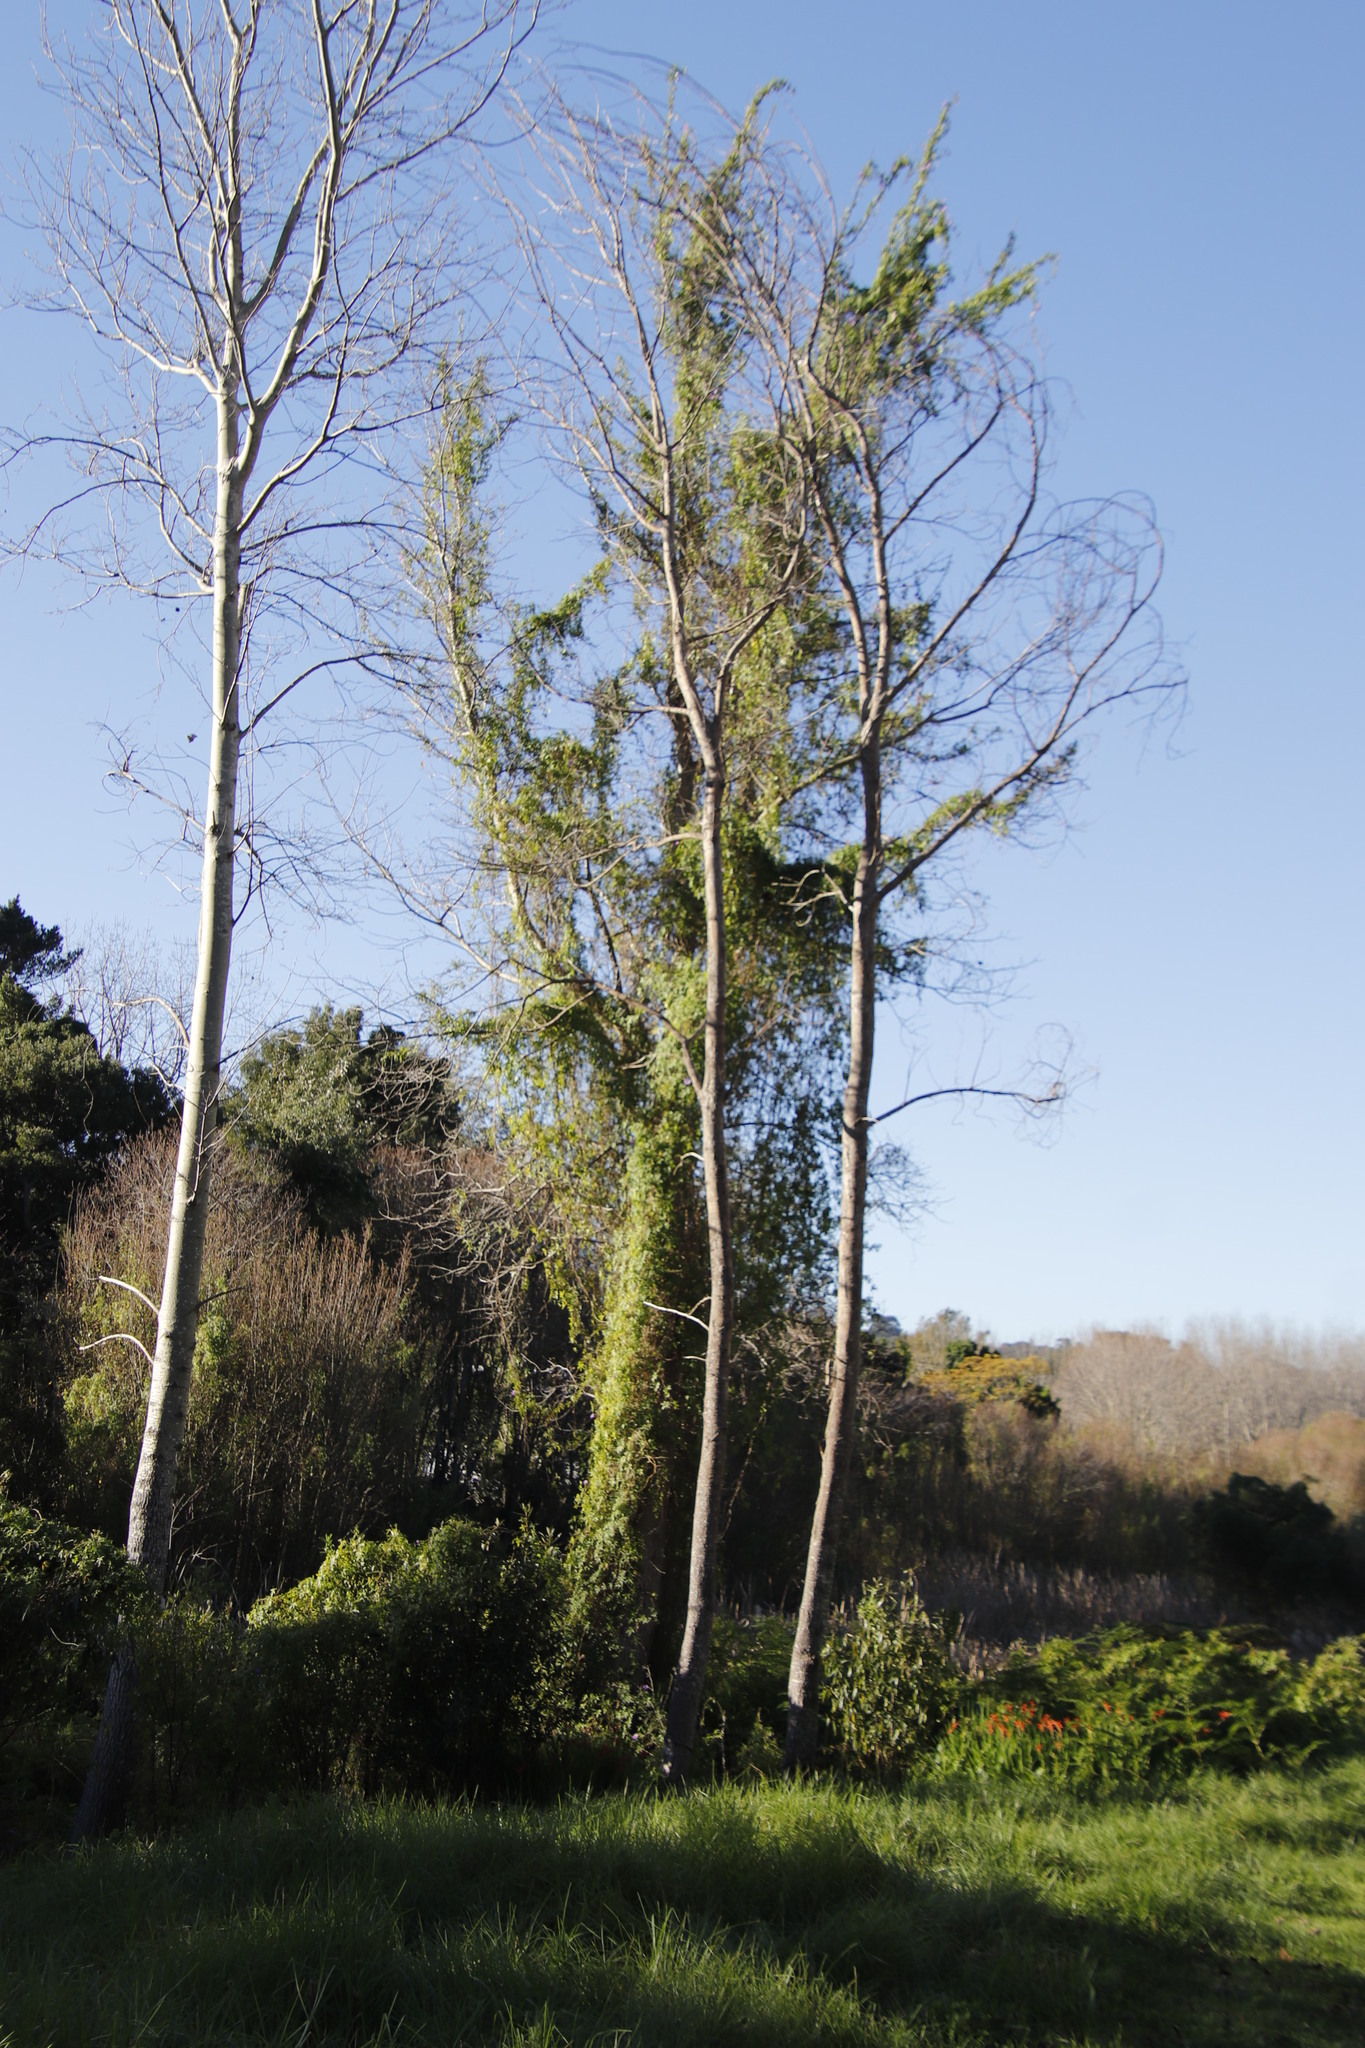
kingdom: Plantae
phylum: Tracheophyta
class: Magnoliopsida
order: Solanales
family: Convolvulaceae
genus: Ipomoea
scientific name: Ipomoea cairica
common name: Mile a minute vine
